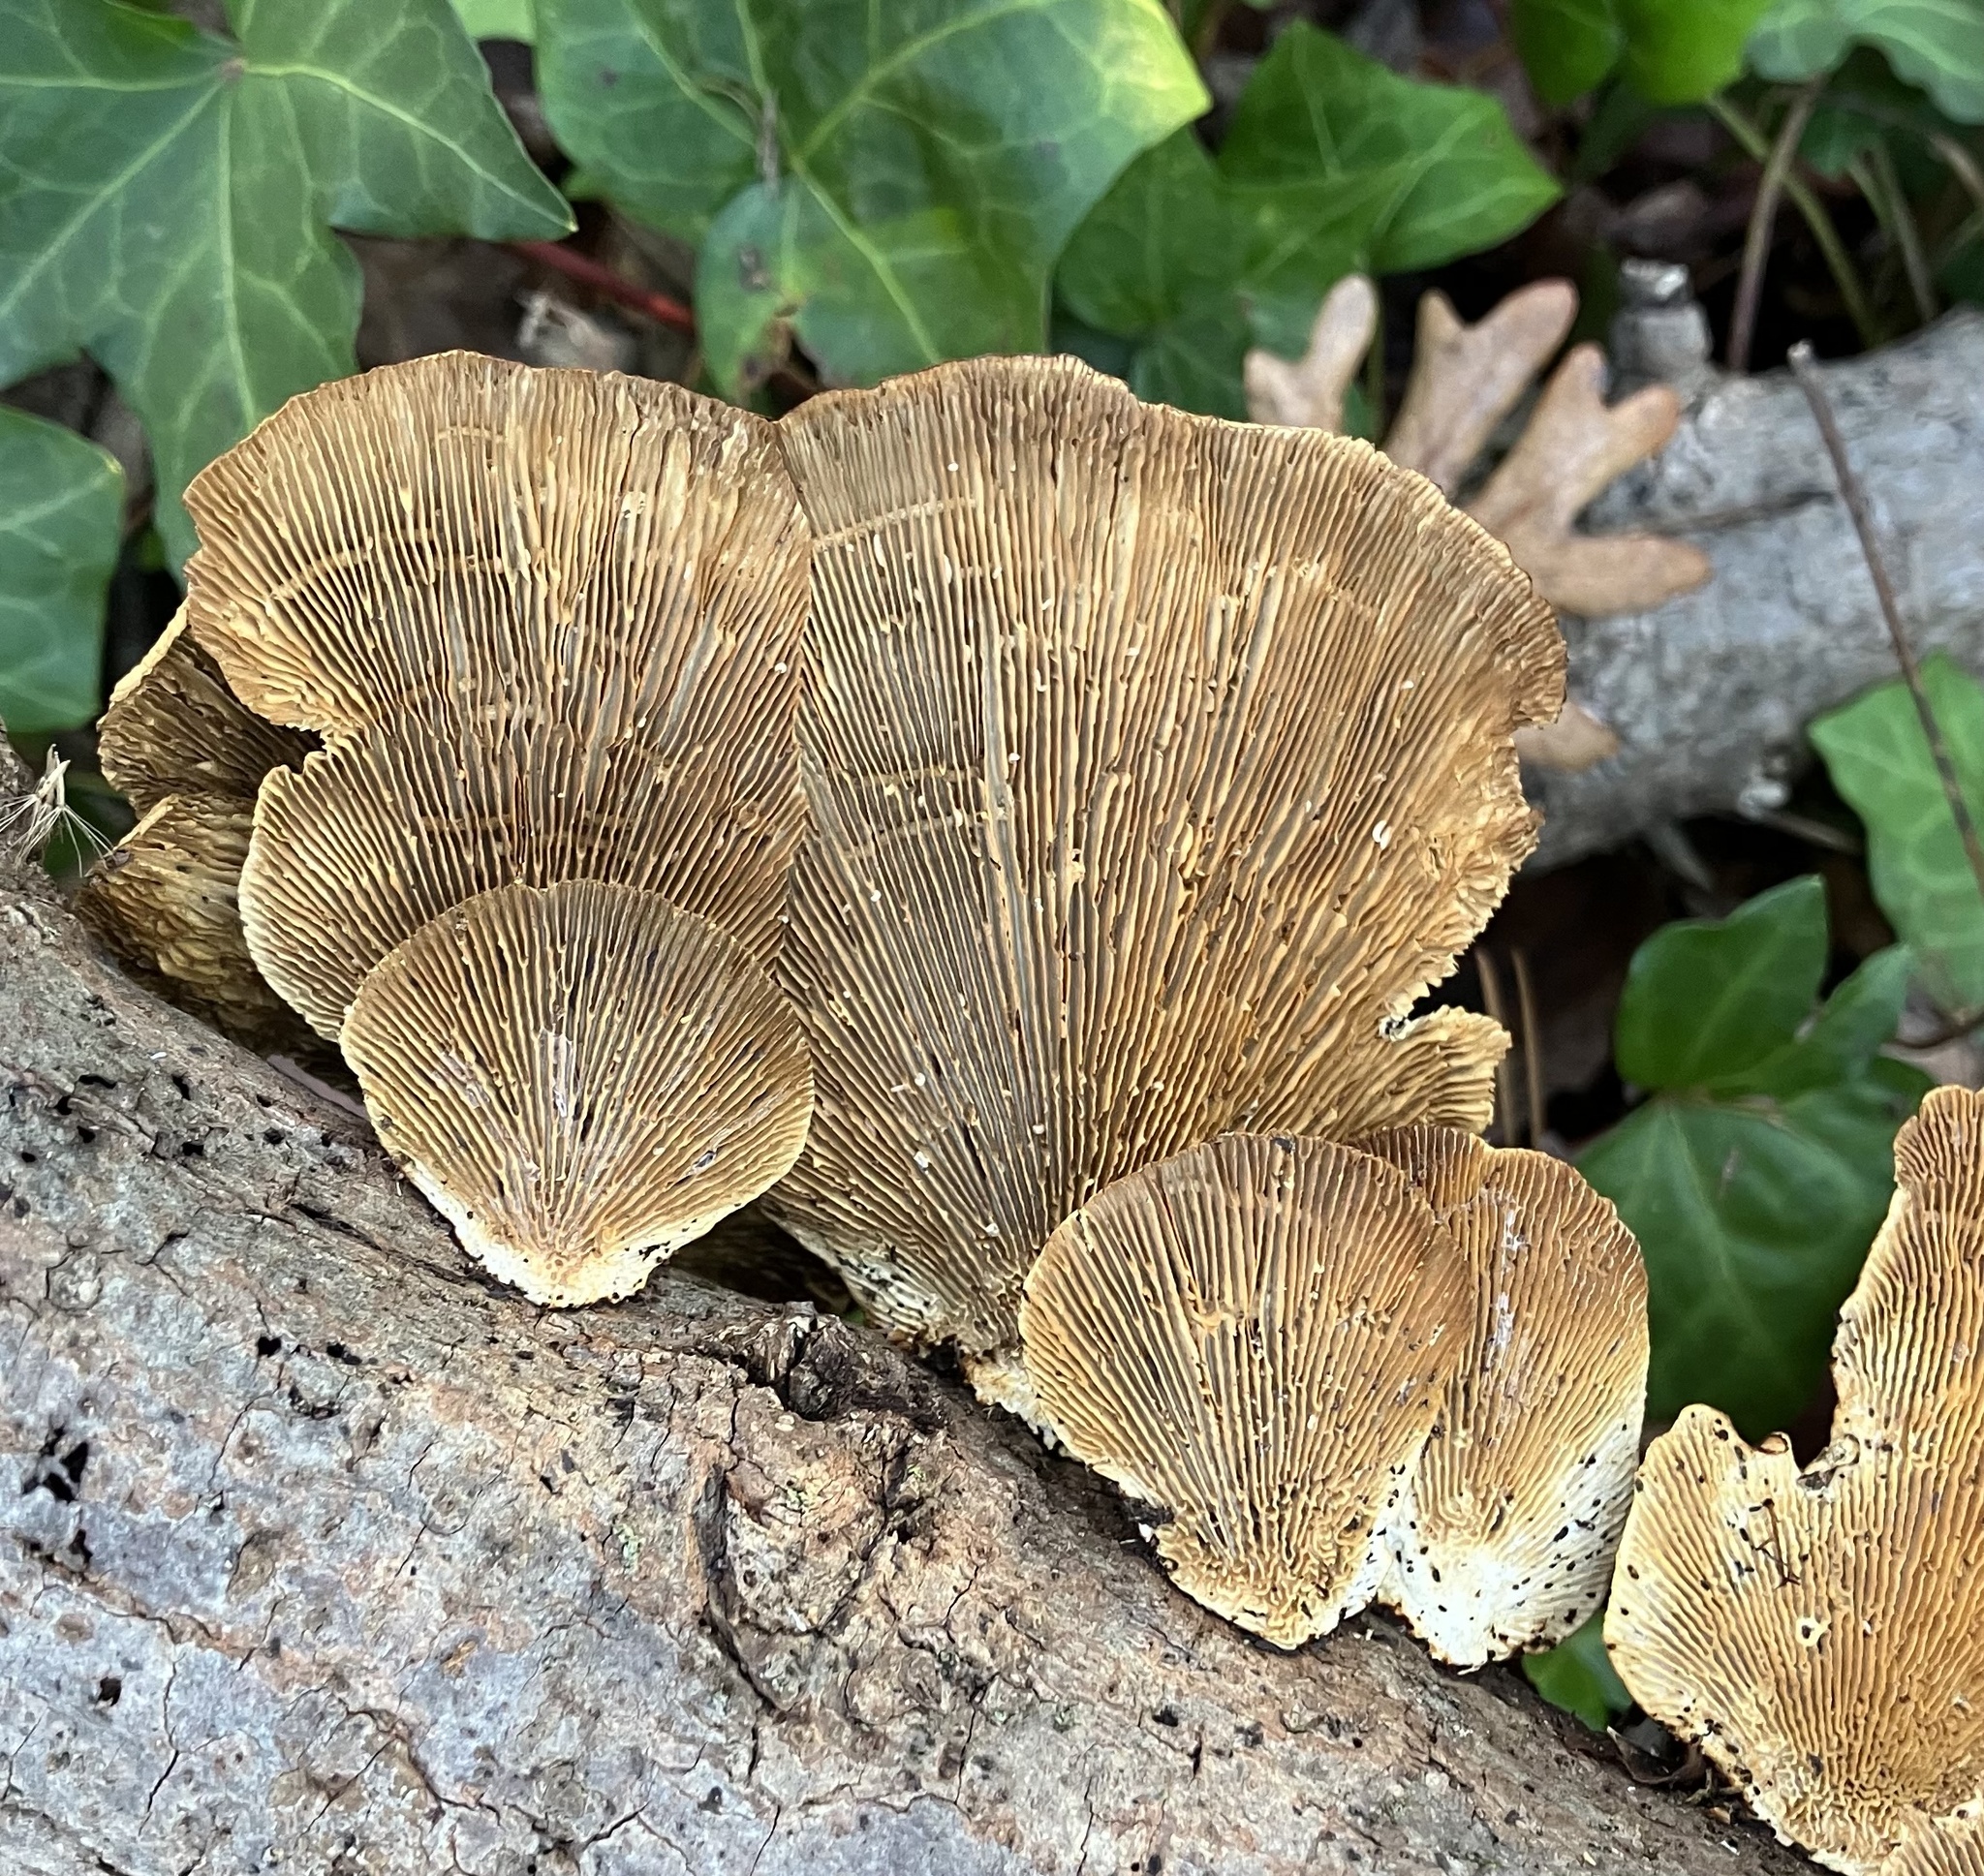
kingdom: Fungi
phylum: Basidiomycota
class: Agaricomycetes
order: Polyporales
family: Polyporaceae
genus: Daedaleopsis
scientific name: Daedaleopsis confragosa
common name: Blushing bracket
